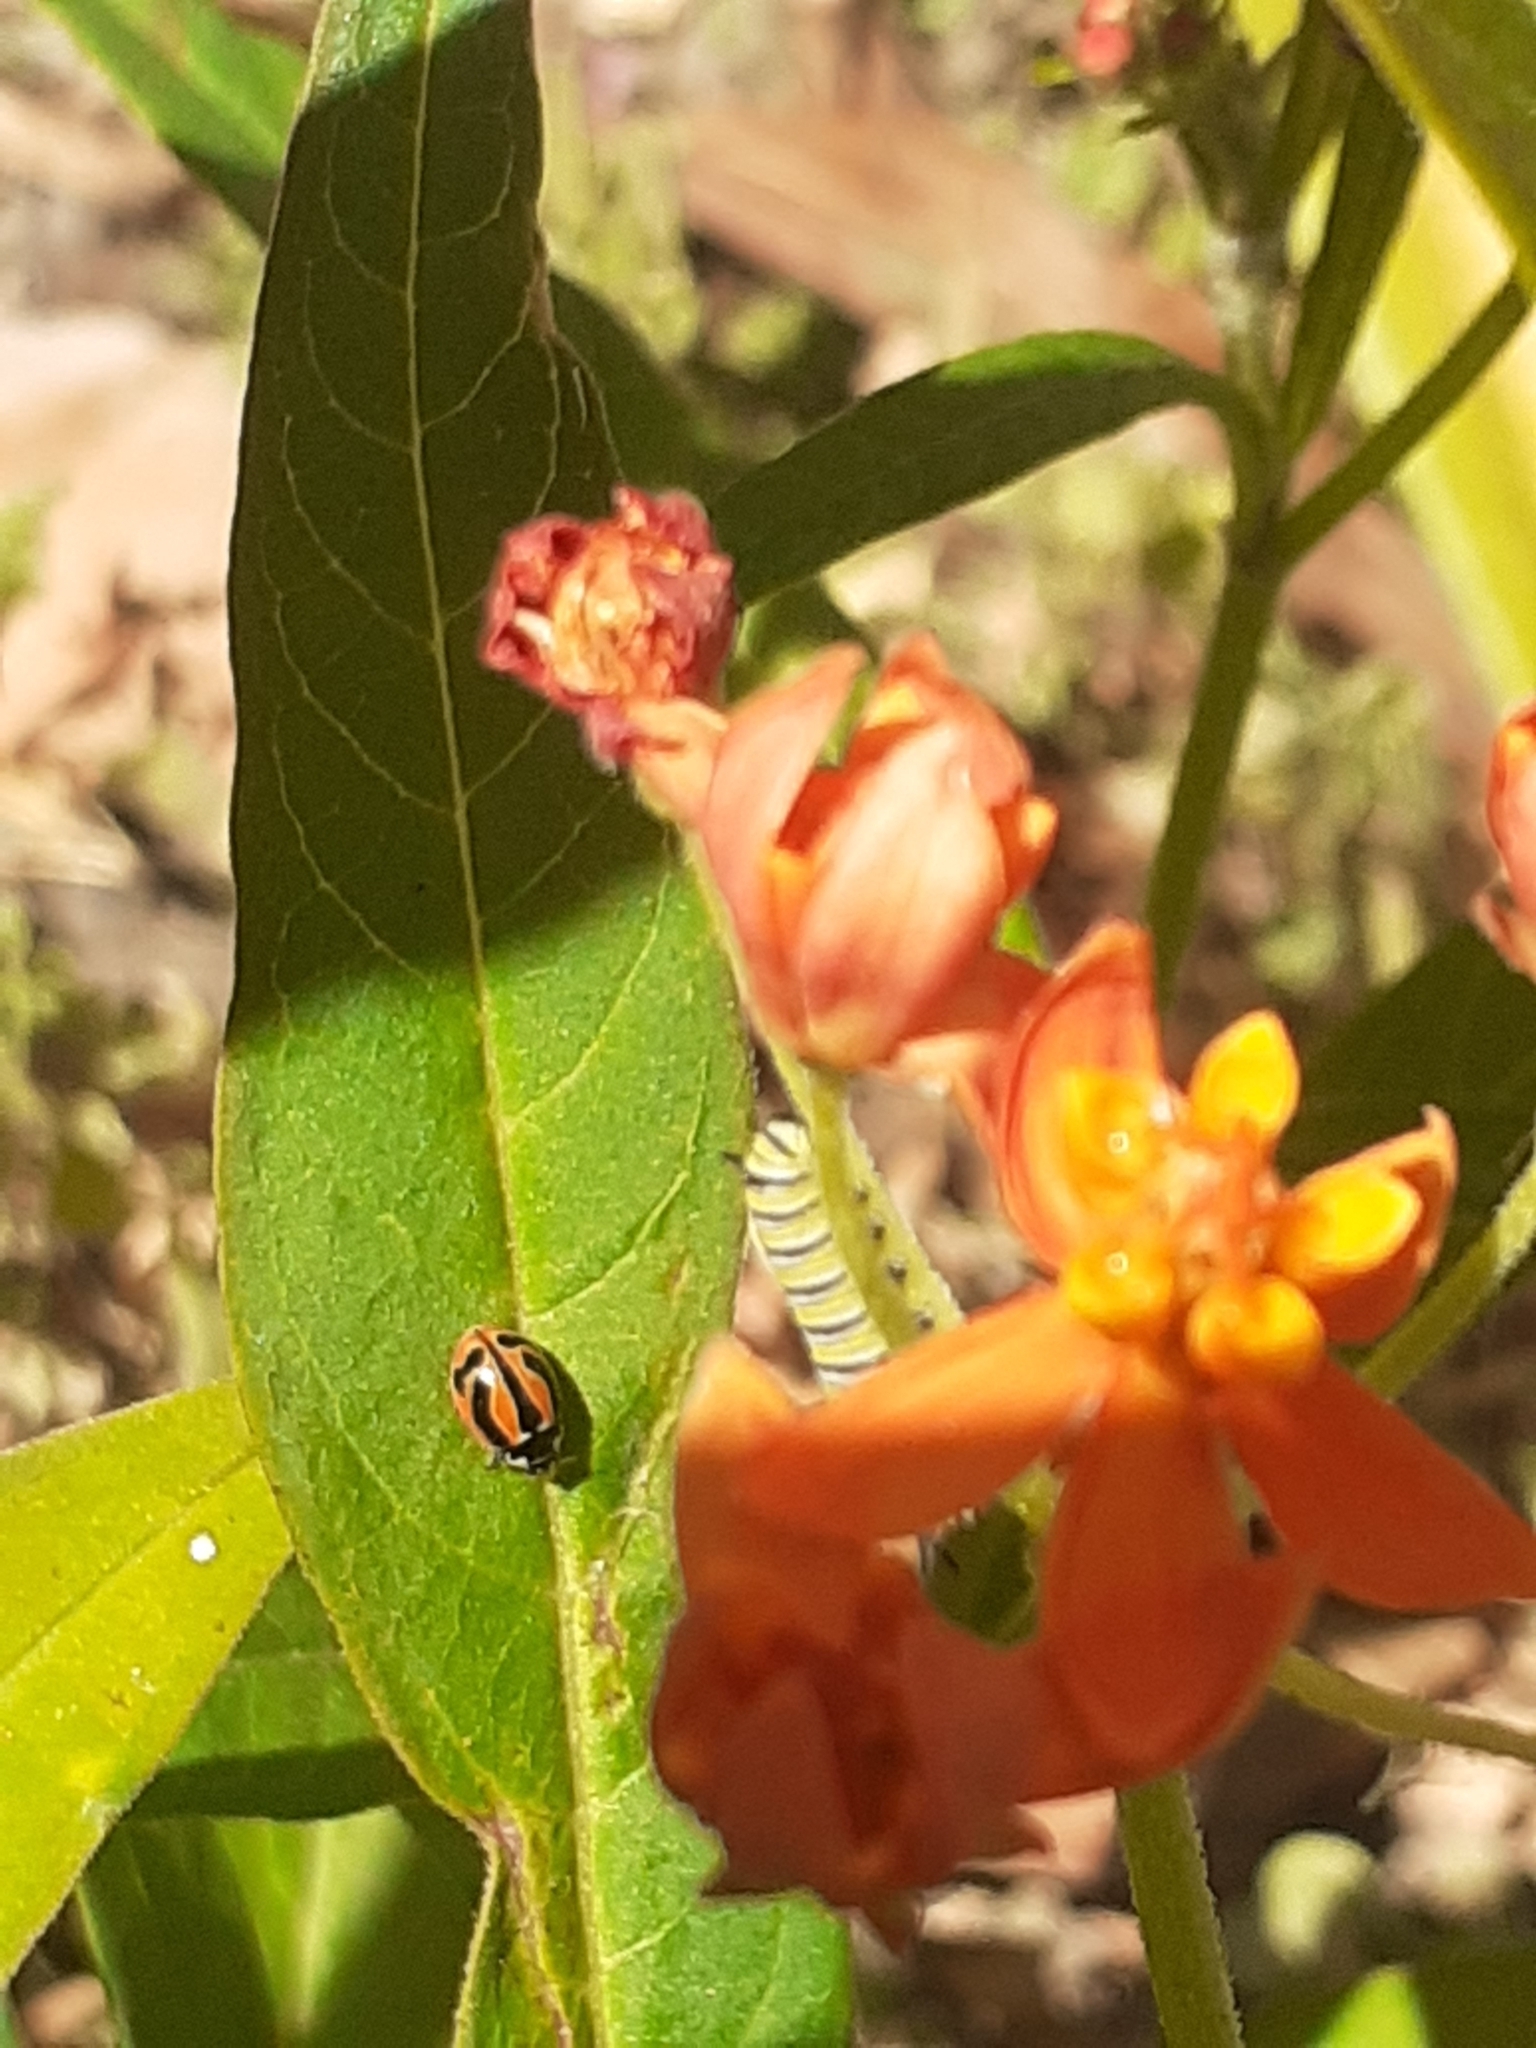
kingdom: Animalia
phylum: Arthropoda
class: Insecta
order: Coleoptera
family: Coccinellidae
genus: Coccinella
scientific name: Coccinella miranda
